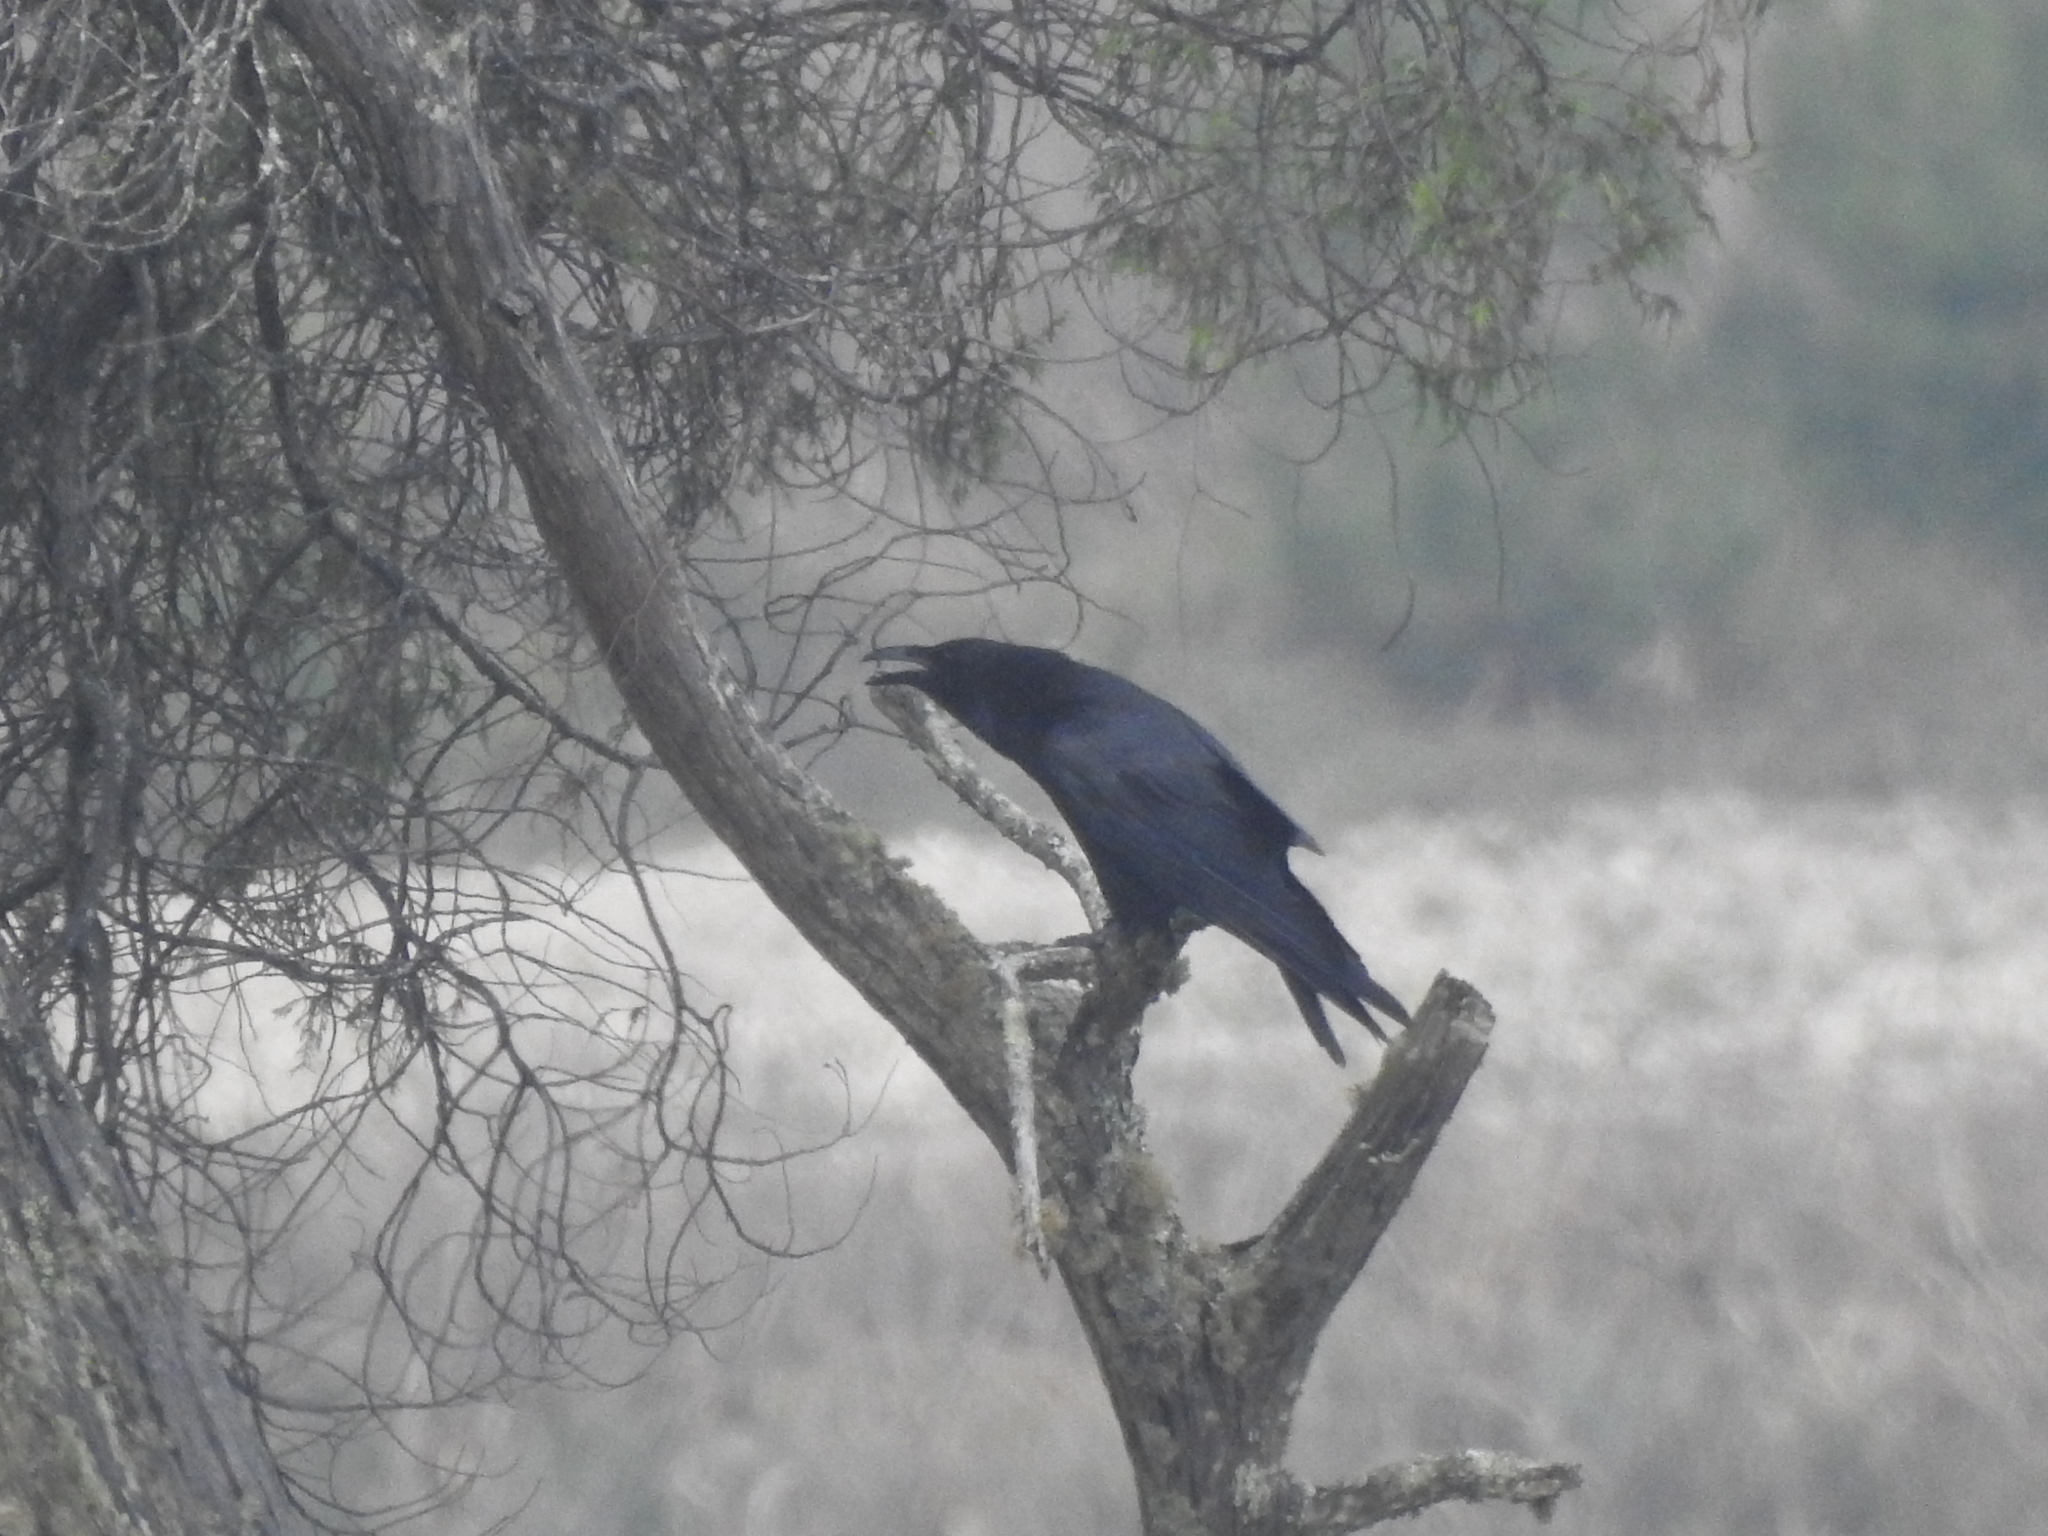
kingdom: Animalia
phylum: Chordata
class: Aves
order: Passeriformes
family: Corvidae
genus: Corvus
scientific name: Corvus corax
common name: Common raven
